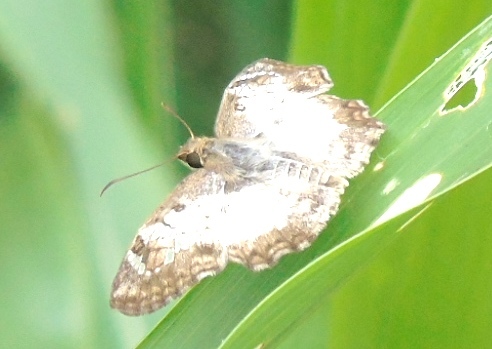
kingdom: Animalia
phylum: Arthropoda
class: Insecta
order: Lepidoptera
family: Hesperiidae
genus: Antigonus
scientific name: Antigonus emorsa
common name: White spurwing
